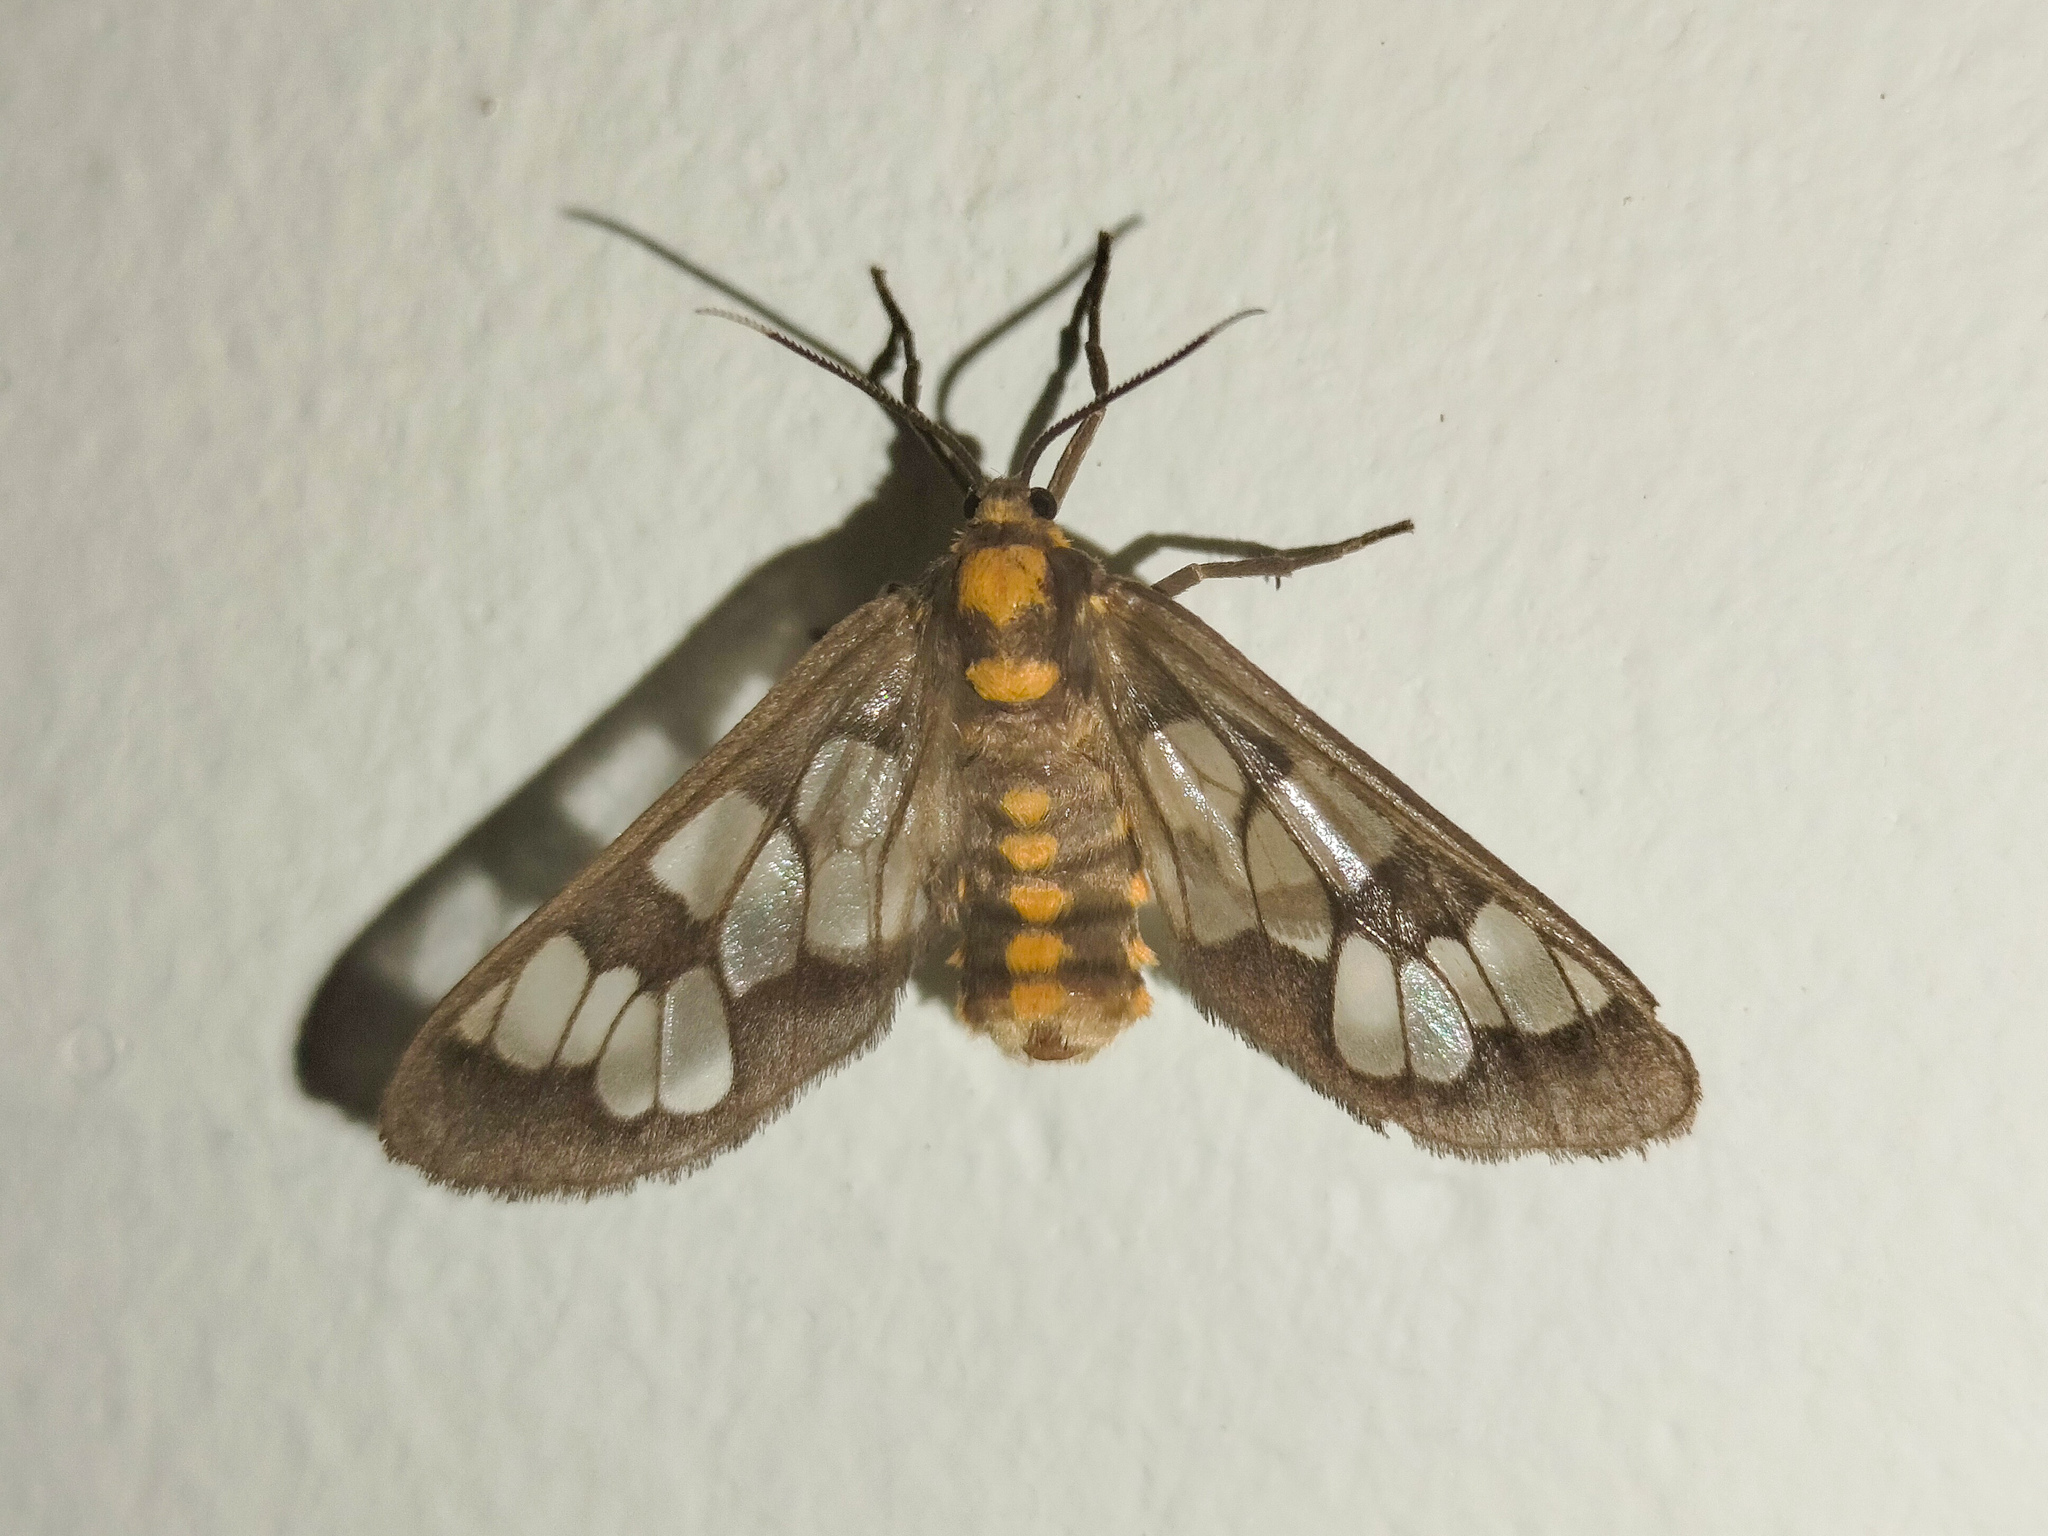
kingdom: Animalia
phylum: Arthropoda
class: Insecta
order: Lepidoptera
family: Erebidae
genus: Eressa
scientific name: Eressa confinis
